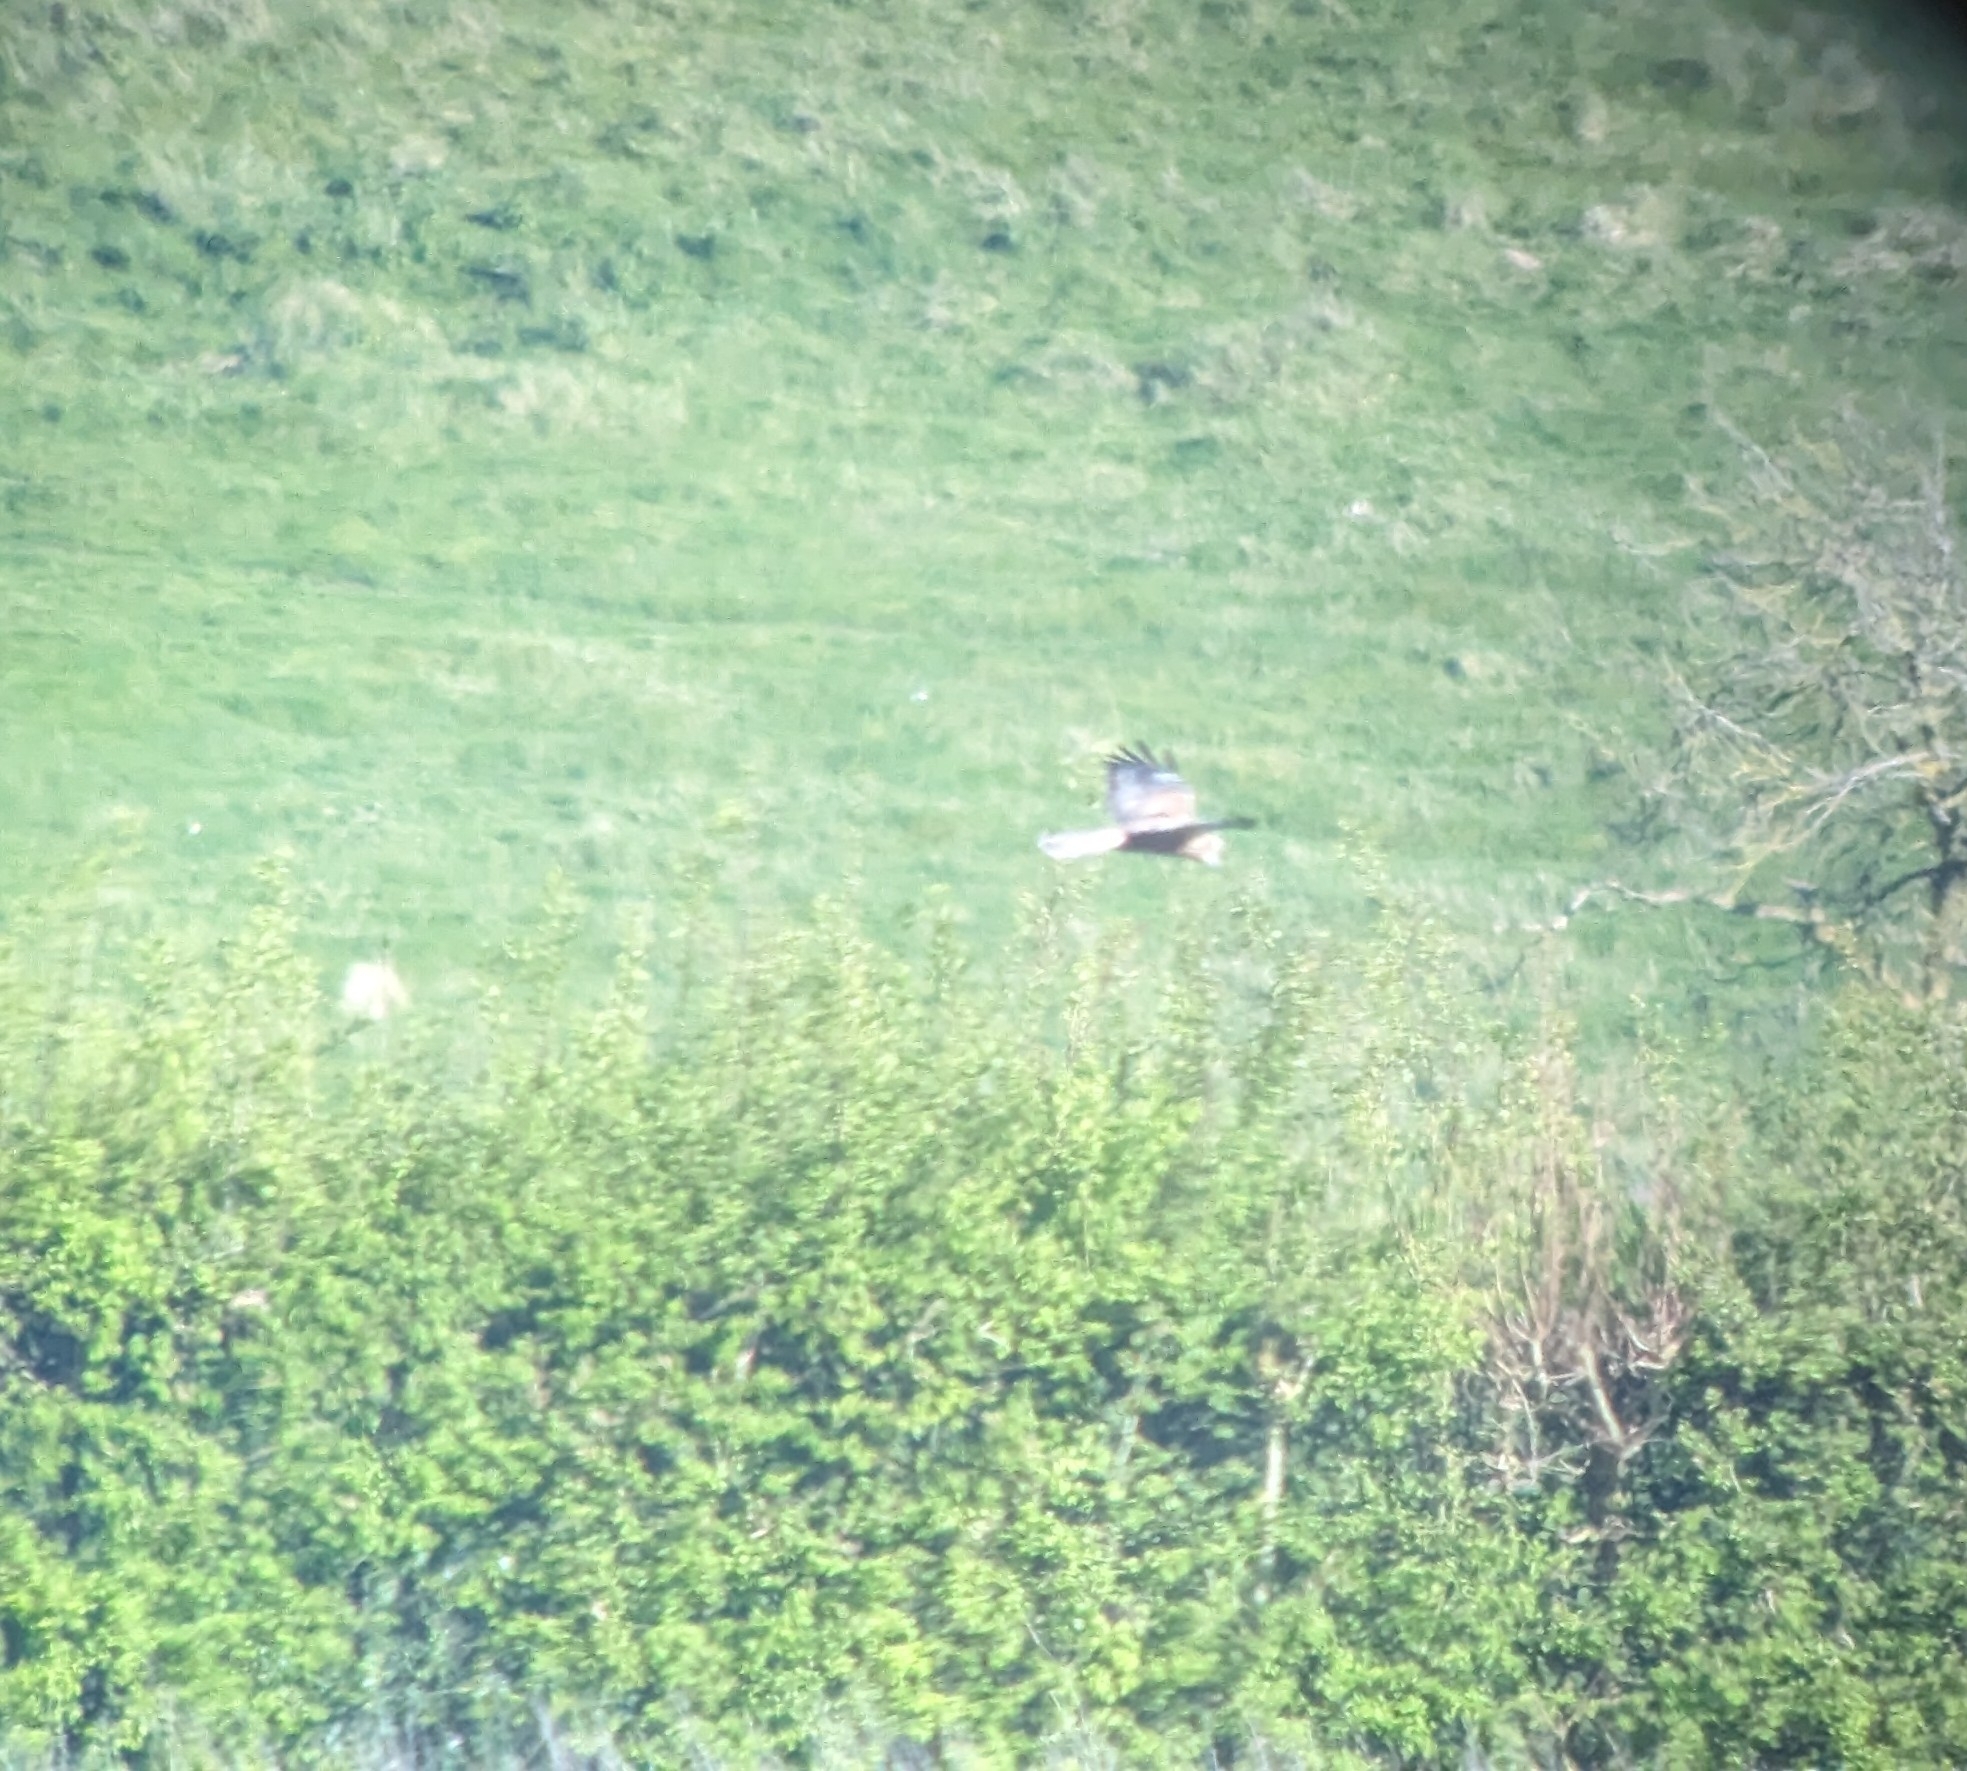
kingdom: Animalia
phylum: Chordata
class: Aves
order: Accipitriformes
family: Accipitridae
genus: Circus
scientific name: Circus aeruginosus
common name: Western marsh harrier
